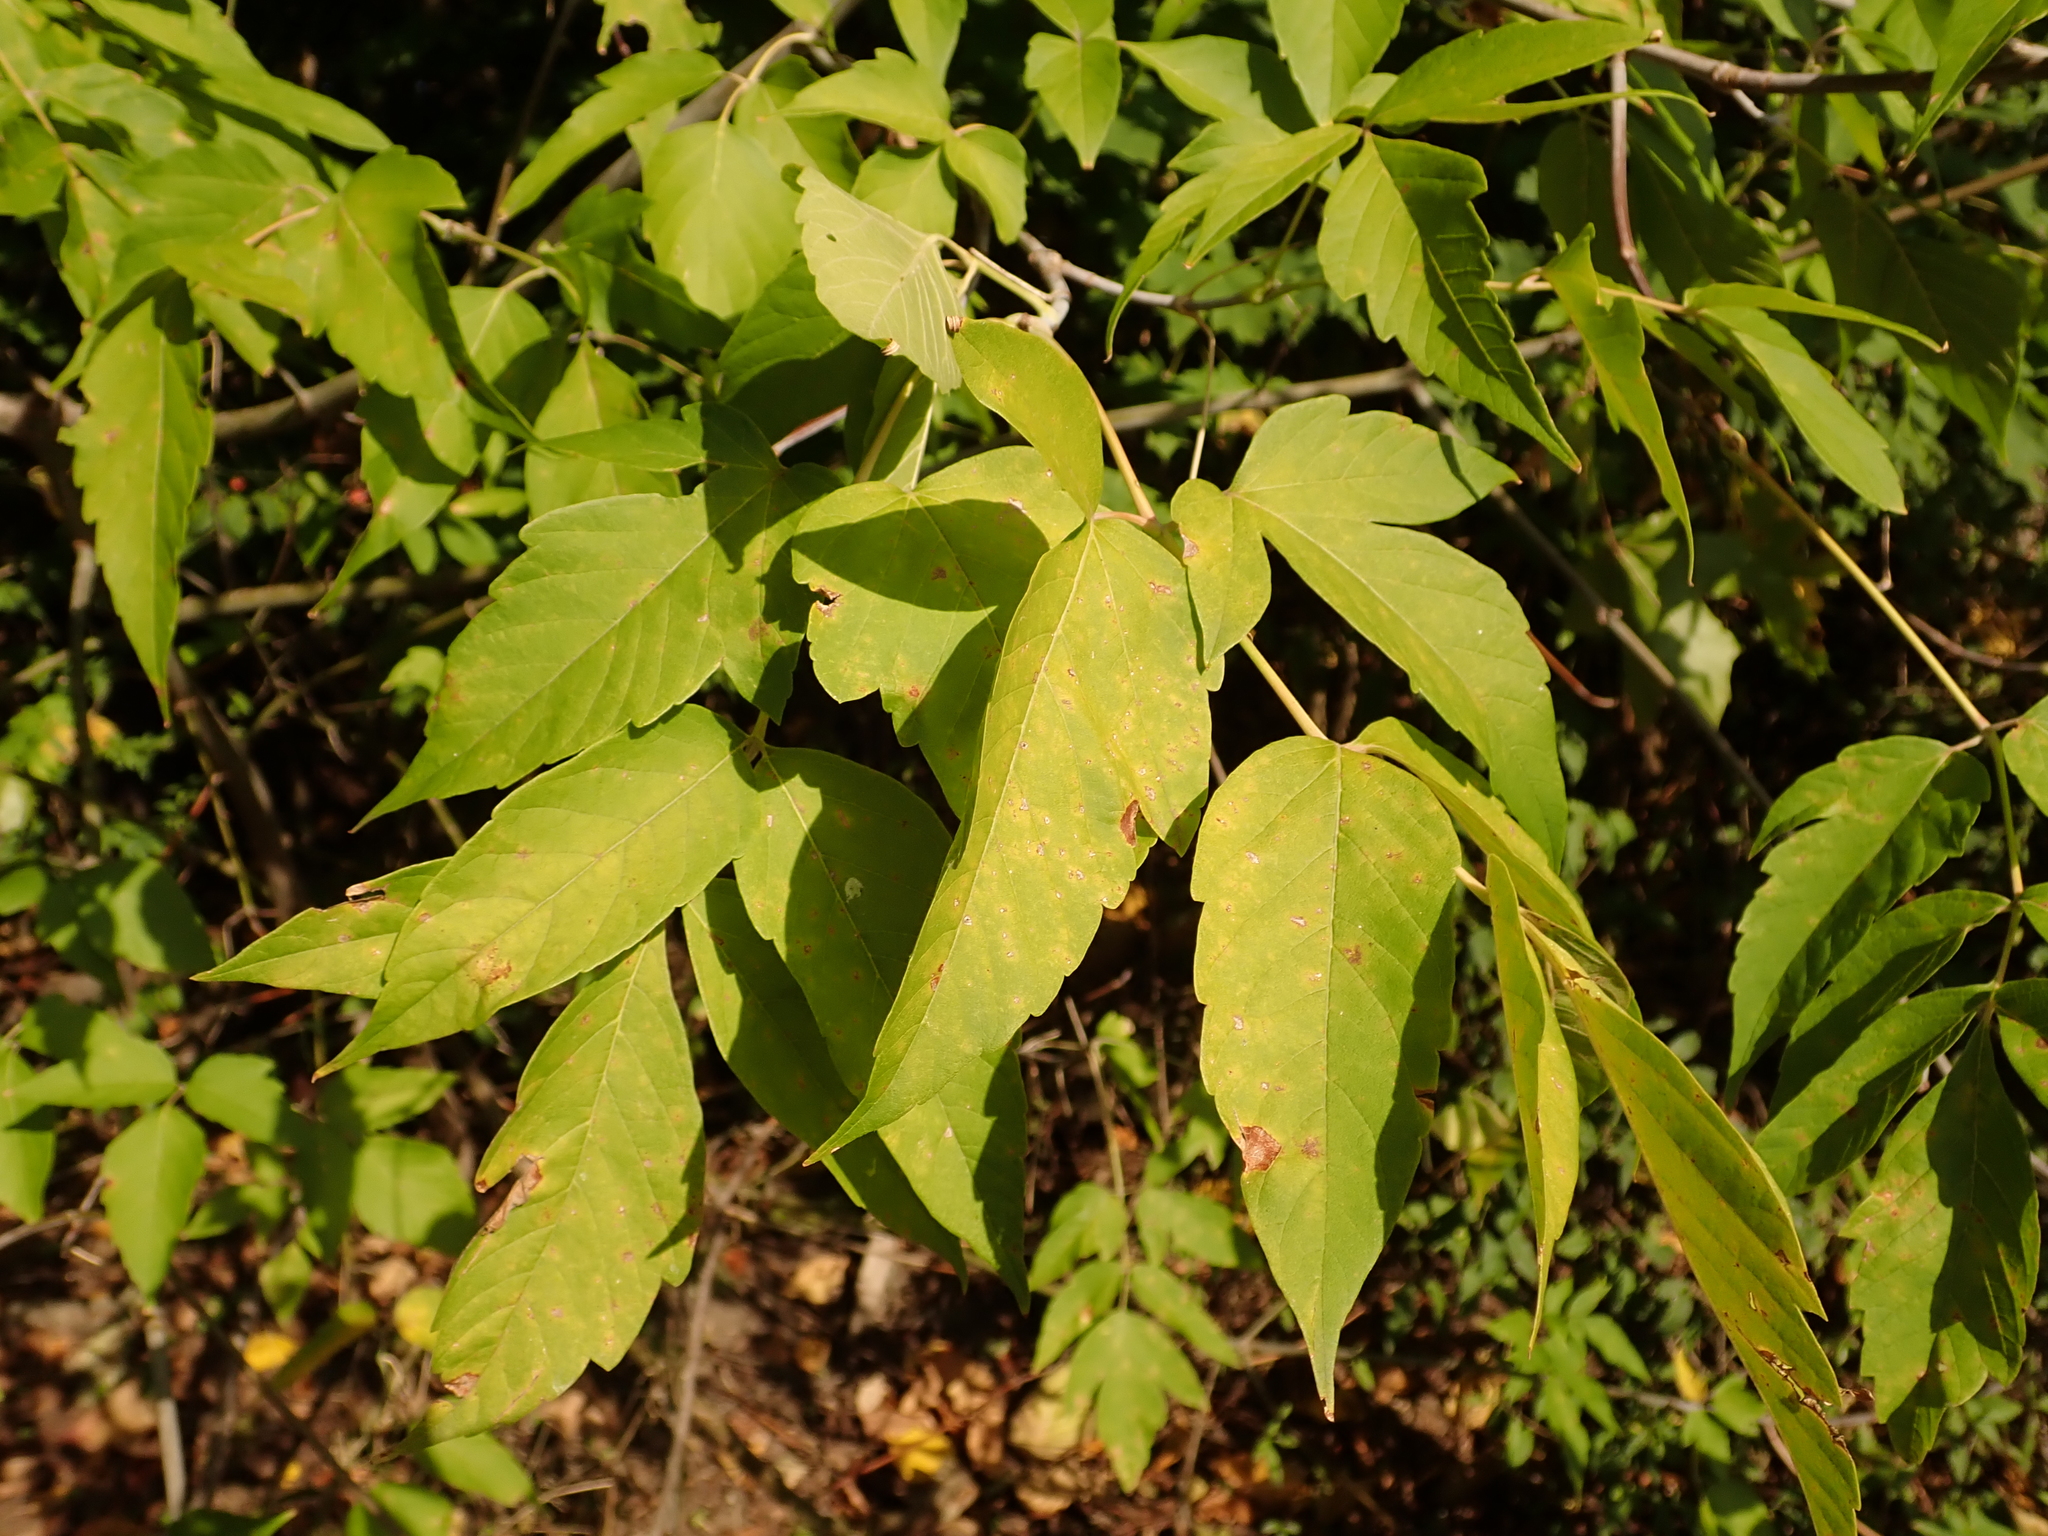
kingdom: Plantae
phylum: Tracheophyta
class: Magnoliopsida
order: Sapindales
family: Sapindaceae
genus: Acer
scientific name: Acer negundo
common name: Ashleaf maple
